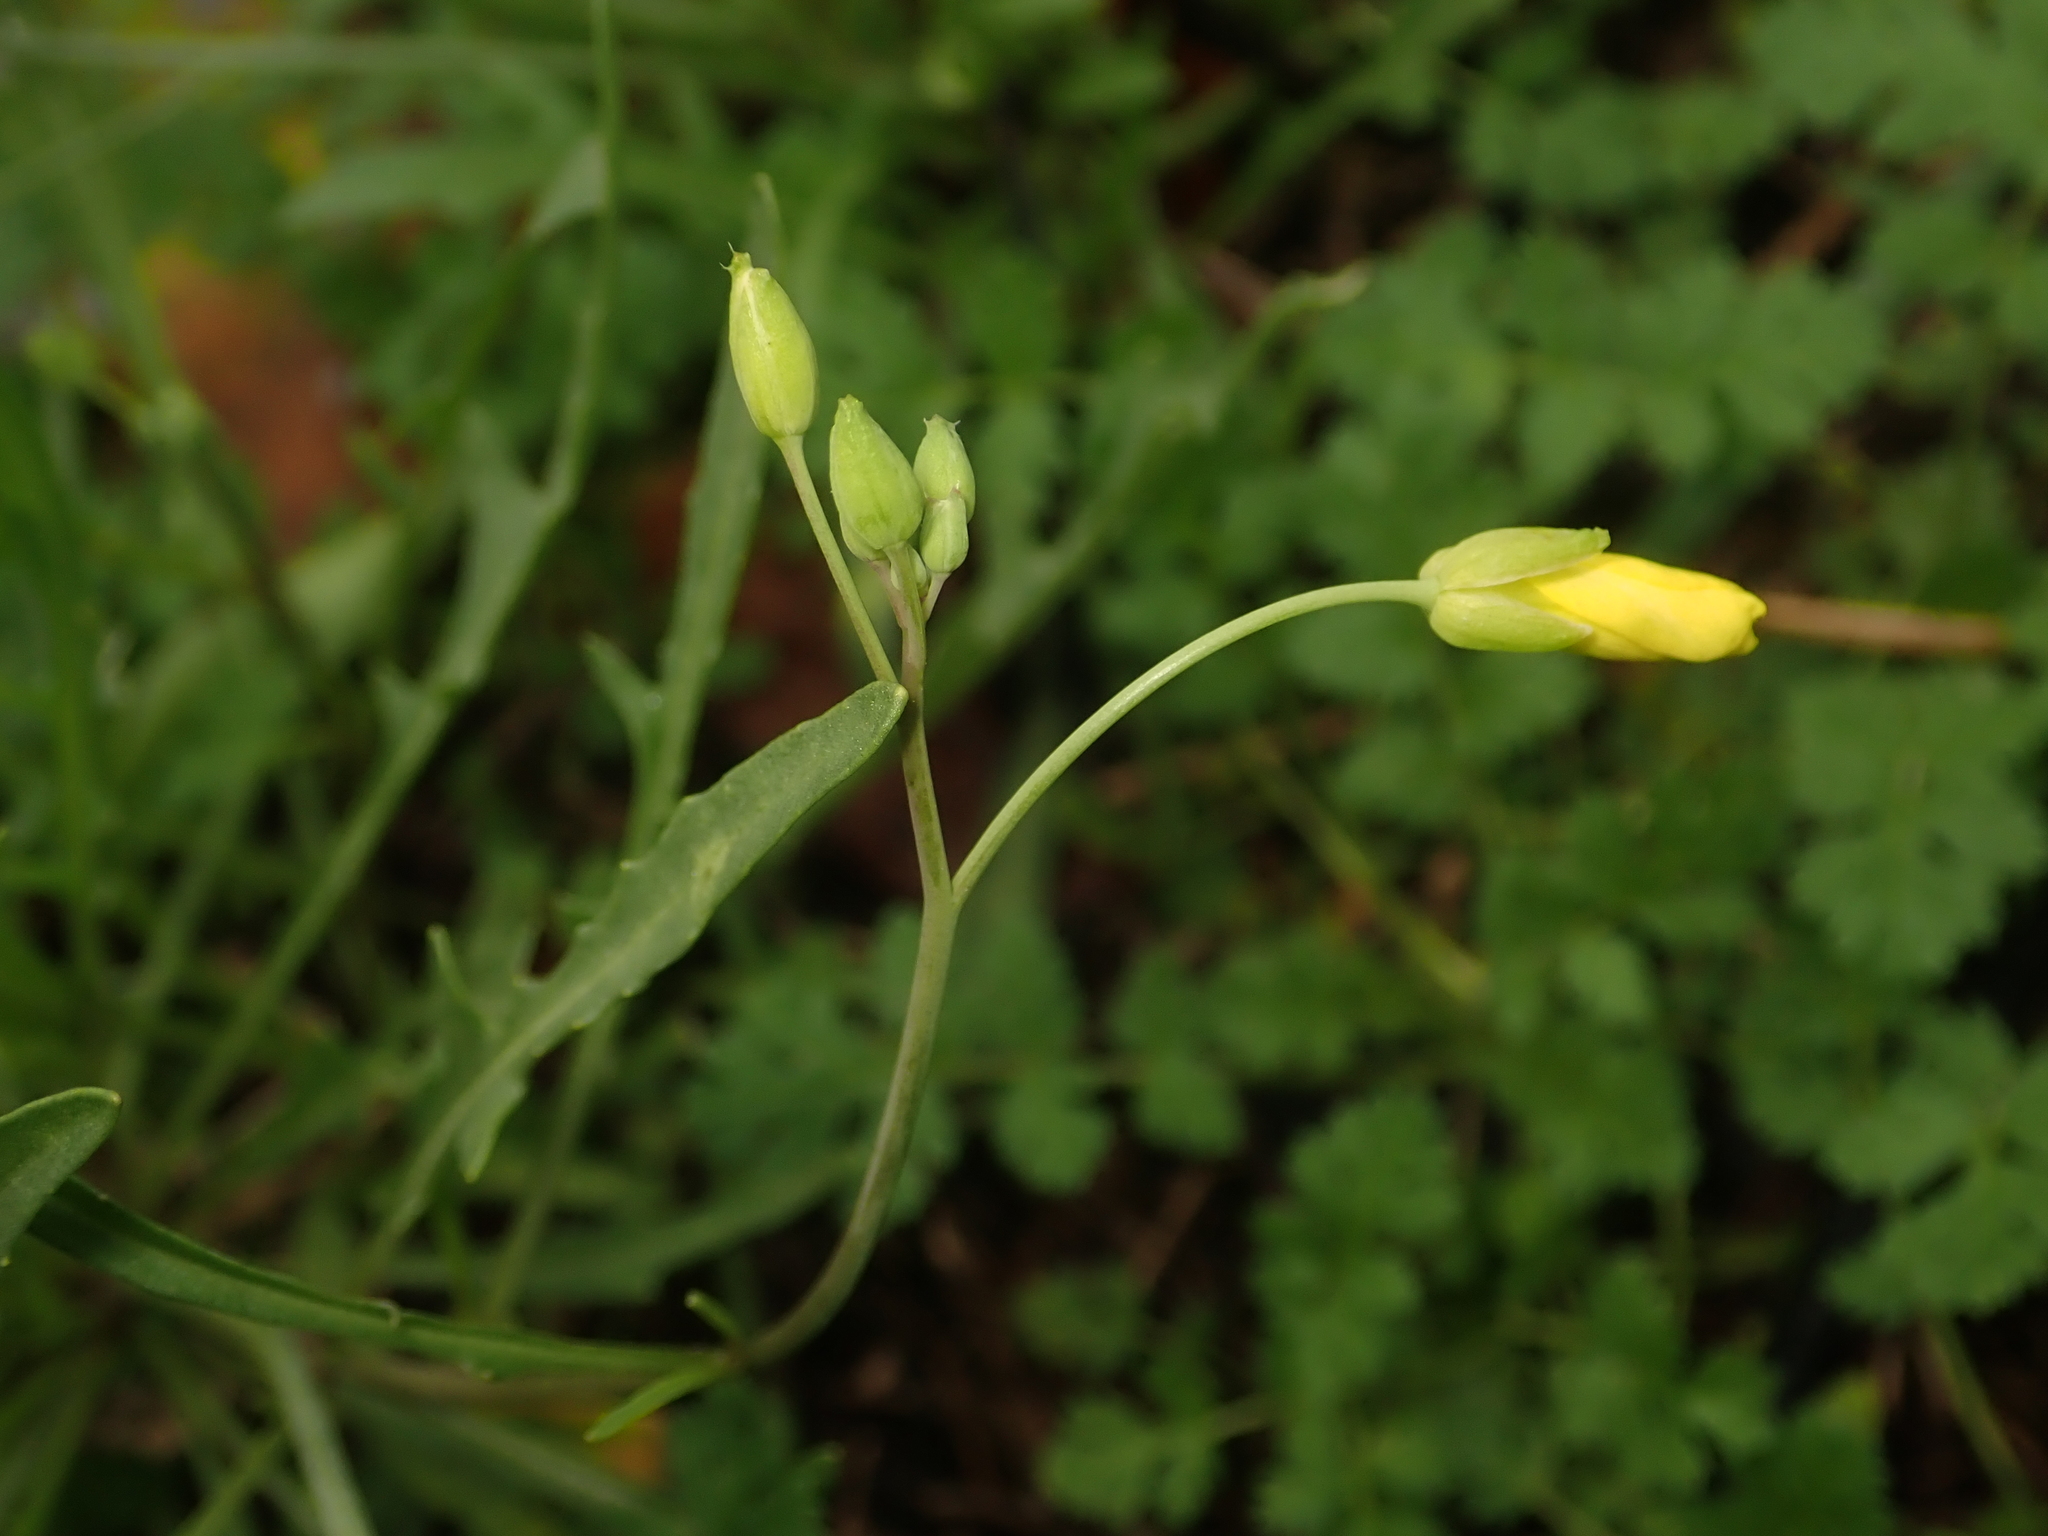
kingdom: Plantae
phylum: Tracheophyta
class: Magnoliopsida
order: Brassicales
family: Brassicaceae
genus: Diplotaxis
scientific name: Diplotaxis tenuifolia
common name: Perennial wall-rocket
